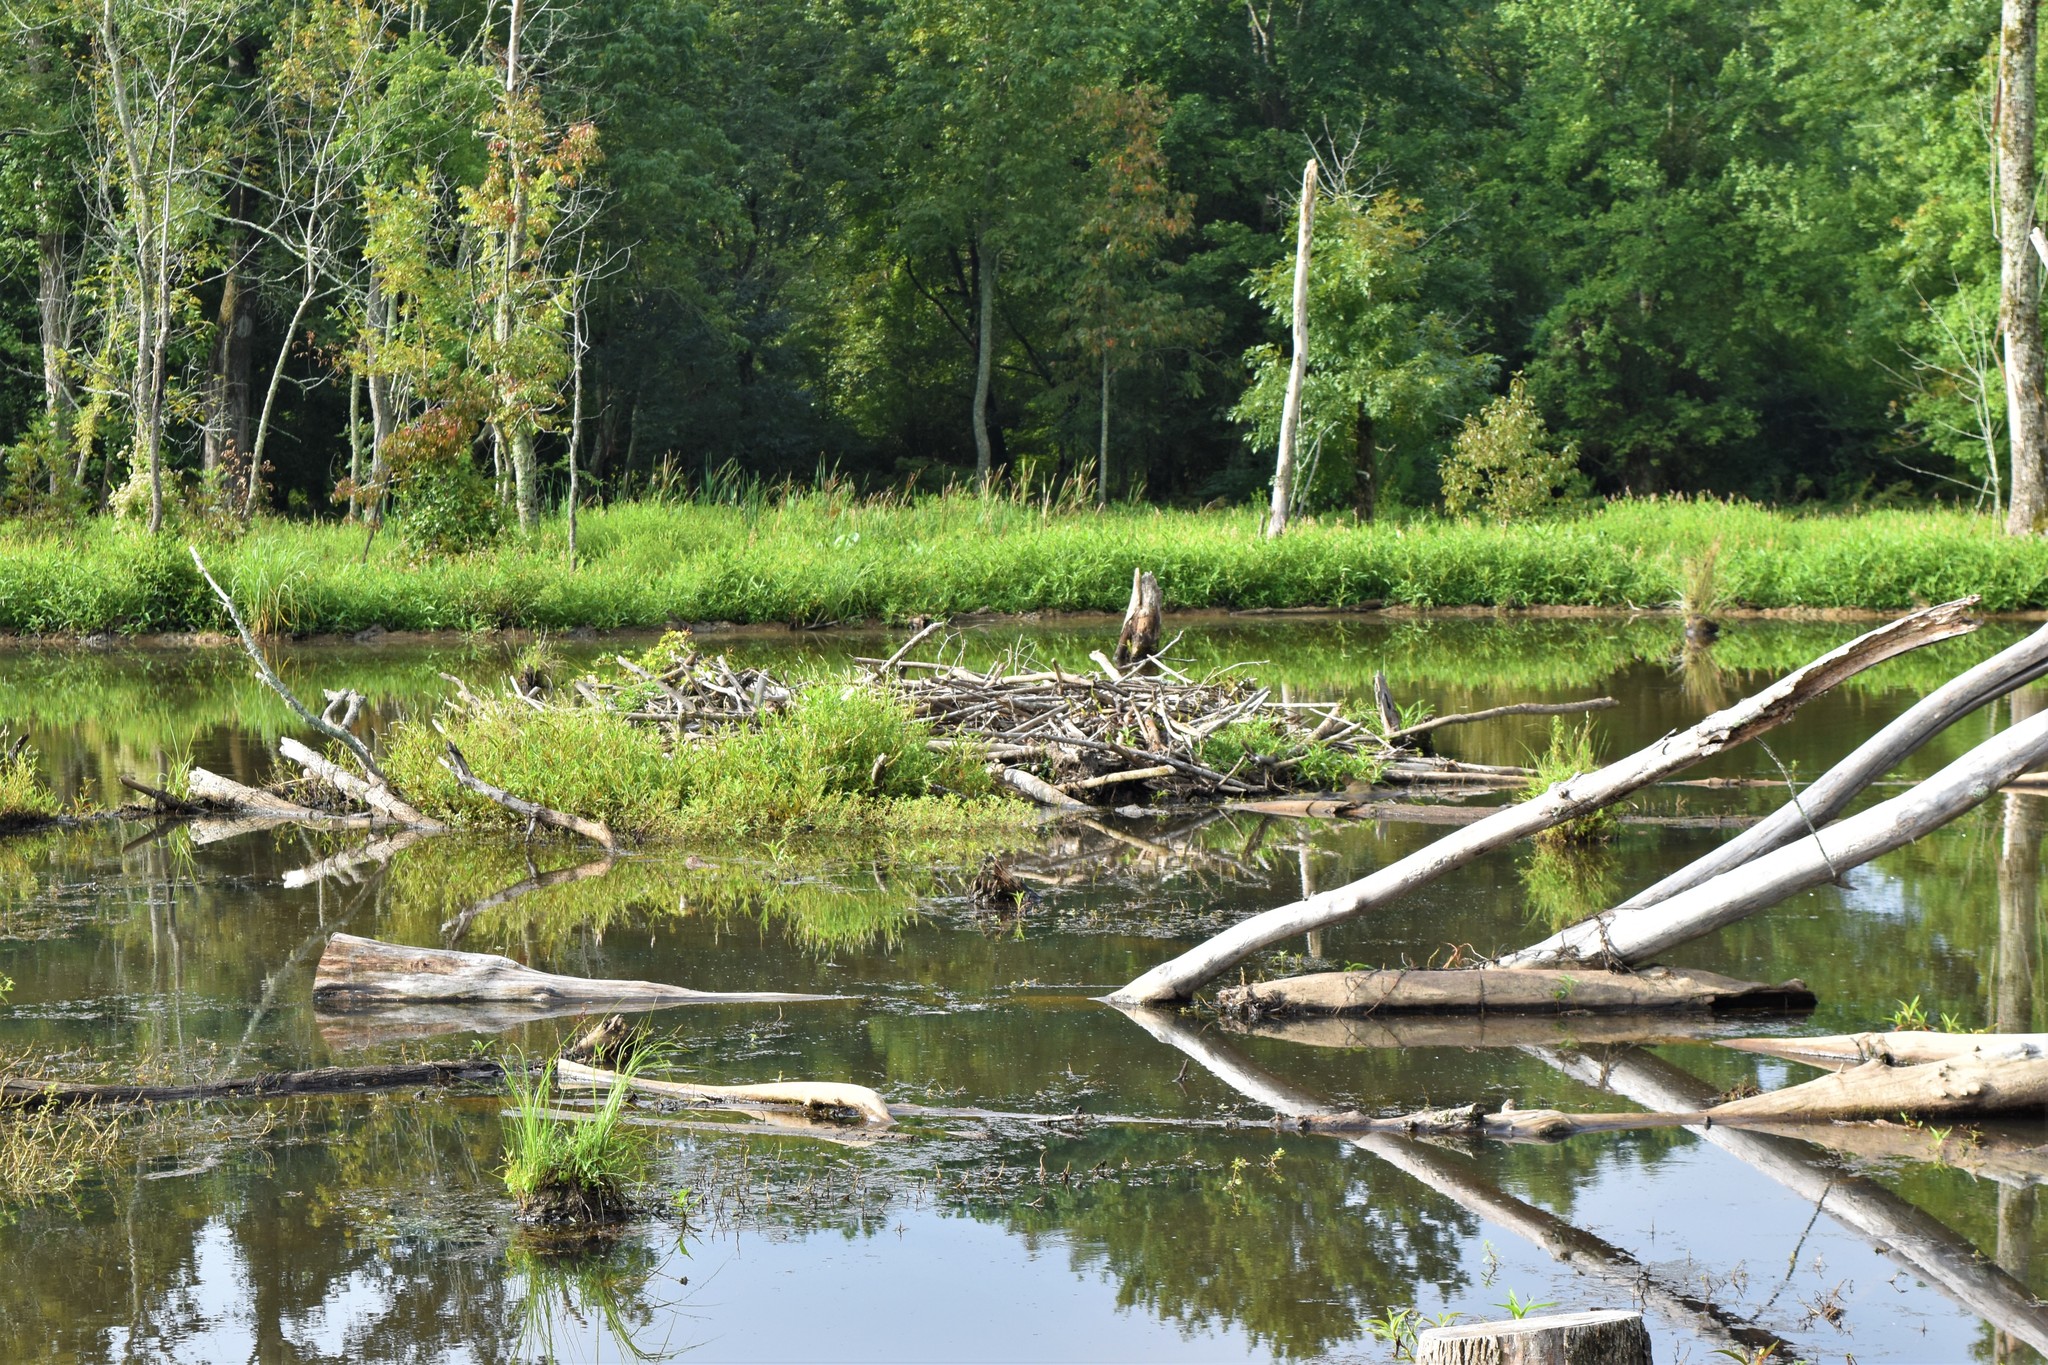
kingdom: Animalia
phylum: Chordata
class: Mammalia
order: Rodentia
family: Castoridae
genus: Castor
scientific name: Castor canadensis
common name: American beaver
